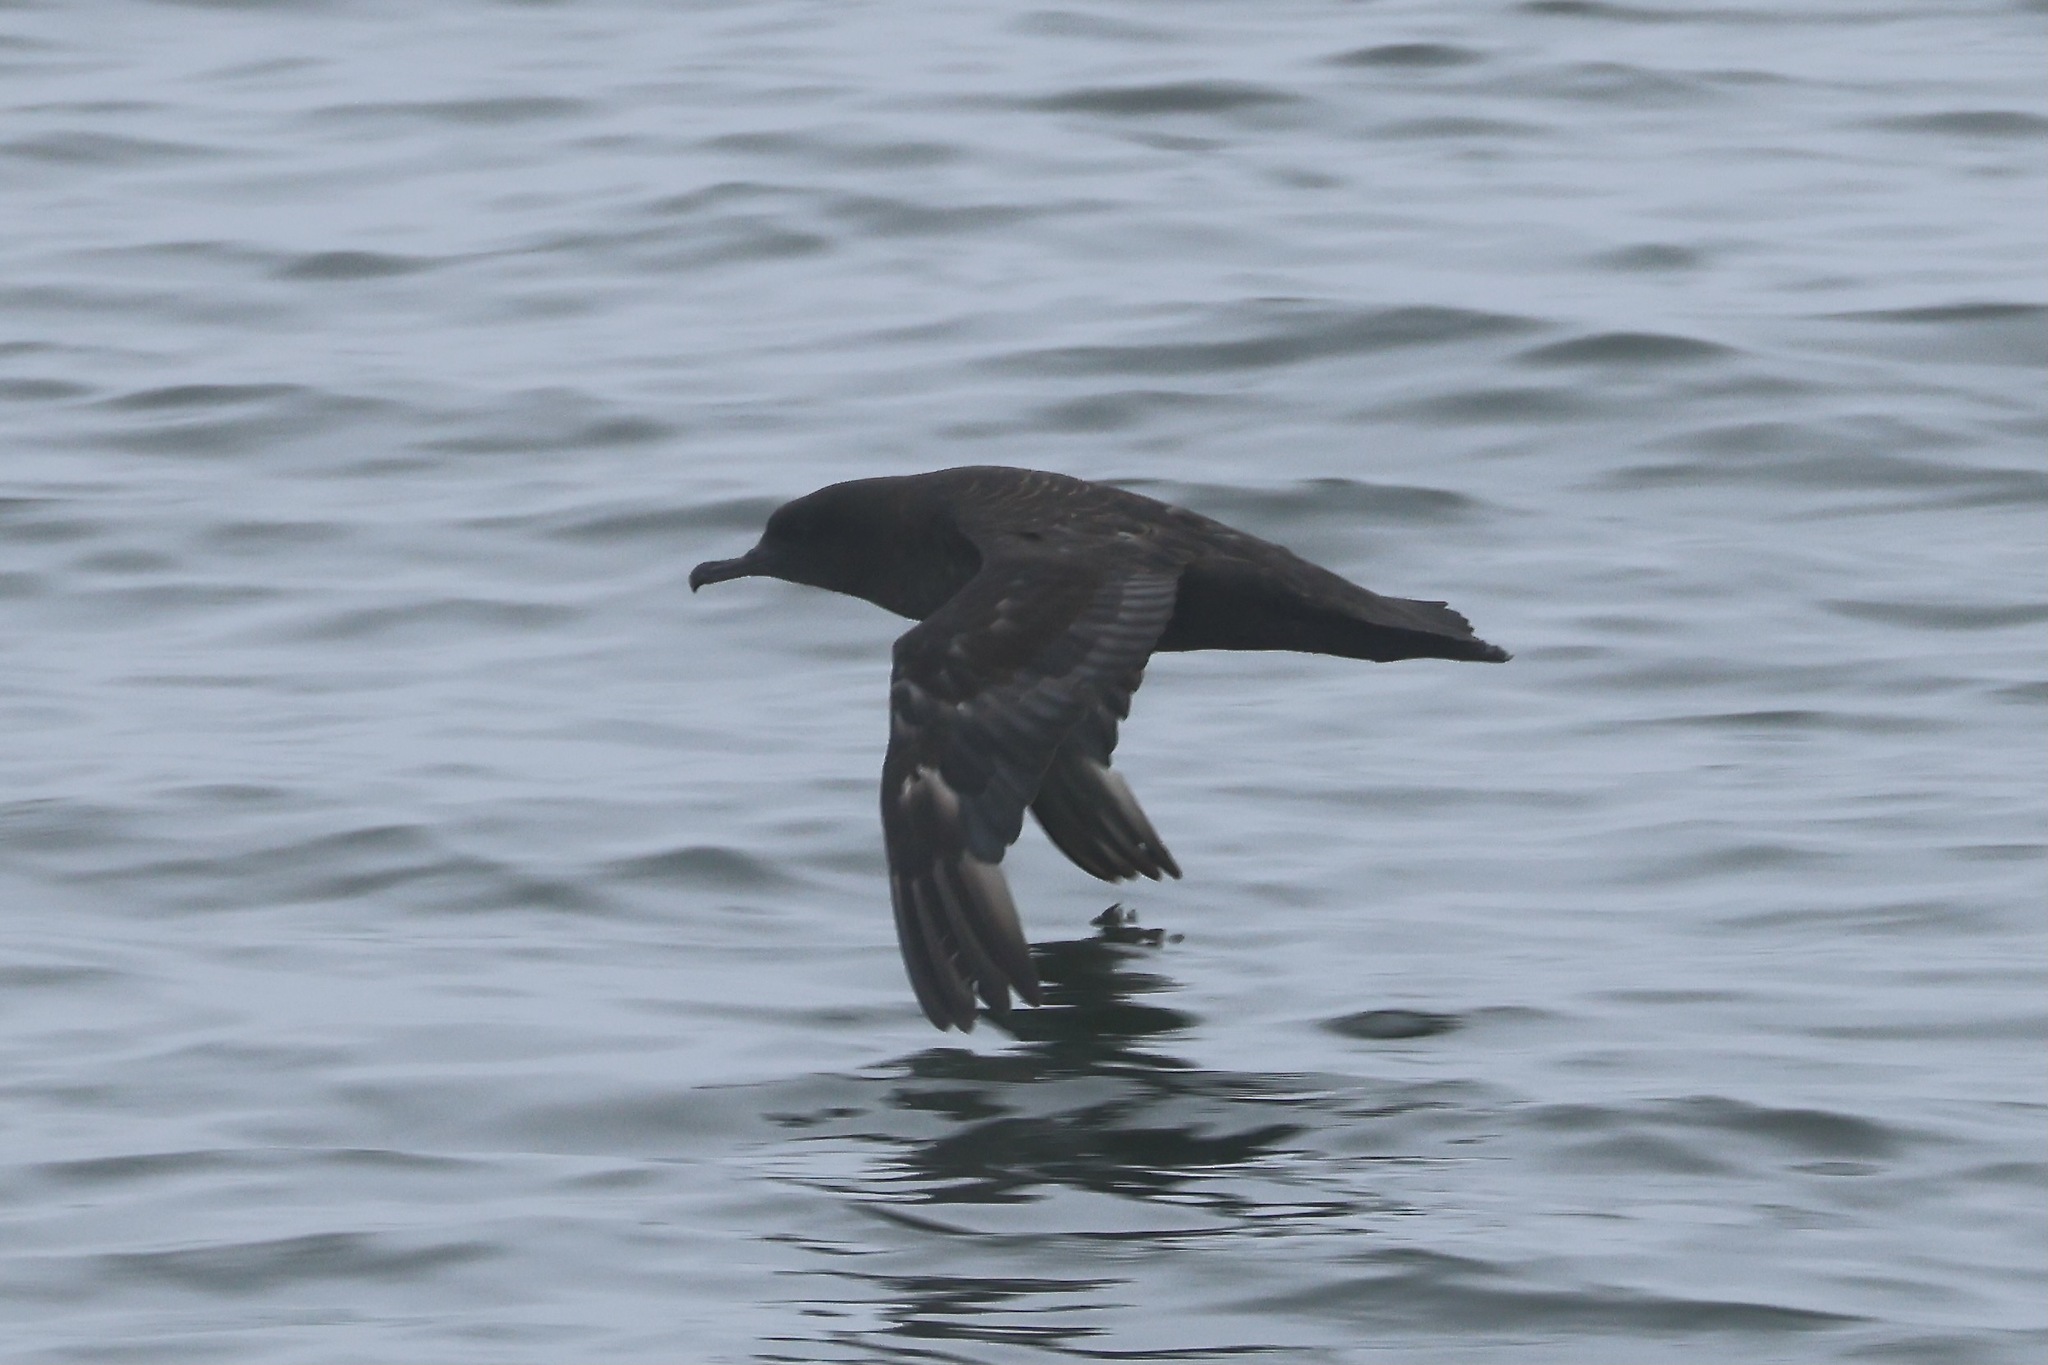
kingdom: Animalia
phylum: Chordata
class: Aves
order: Procellariiformes
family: Procellariidae
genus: Puffinus
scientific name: Puffinus griseus
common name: Sooty shearwater
